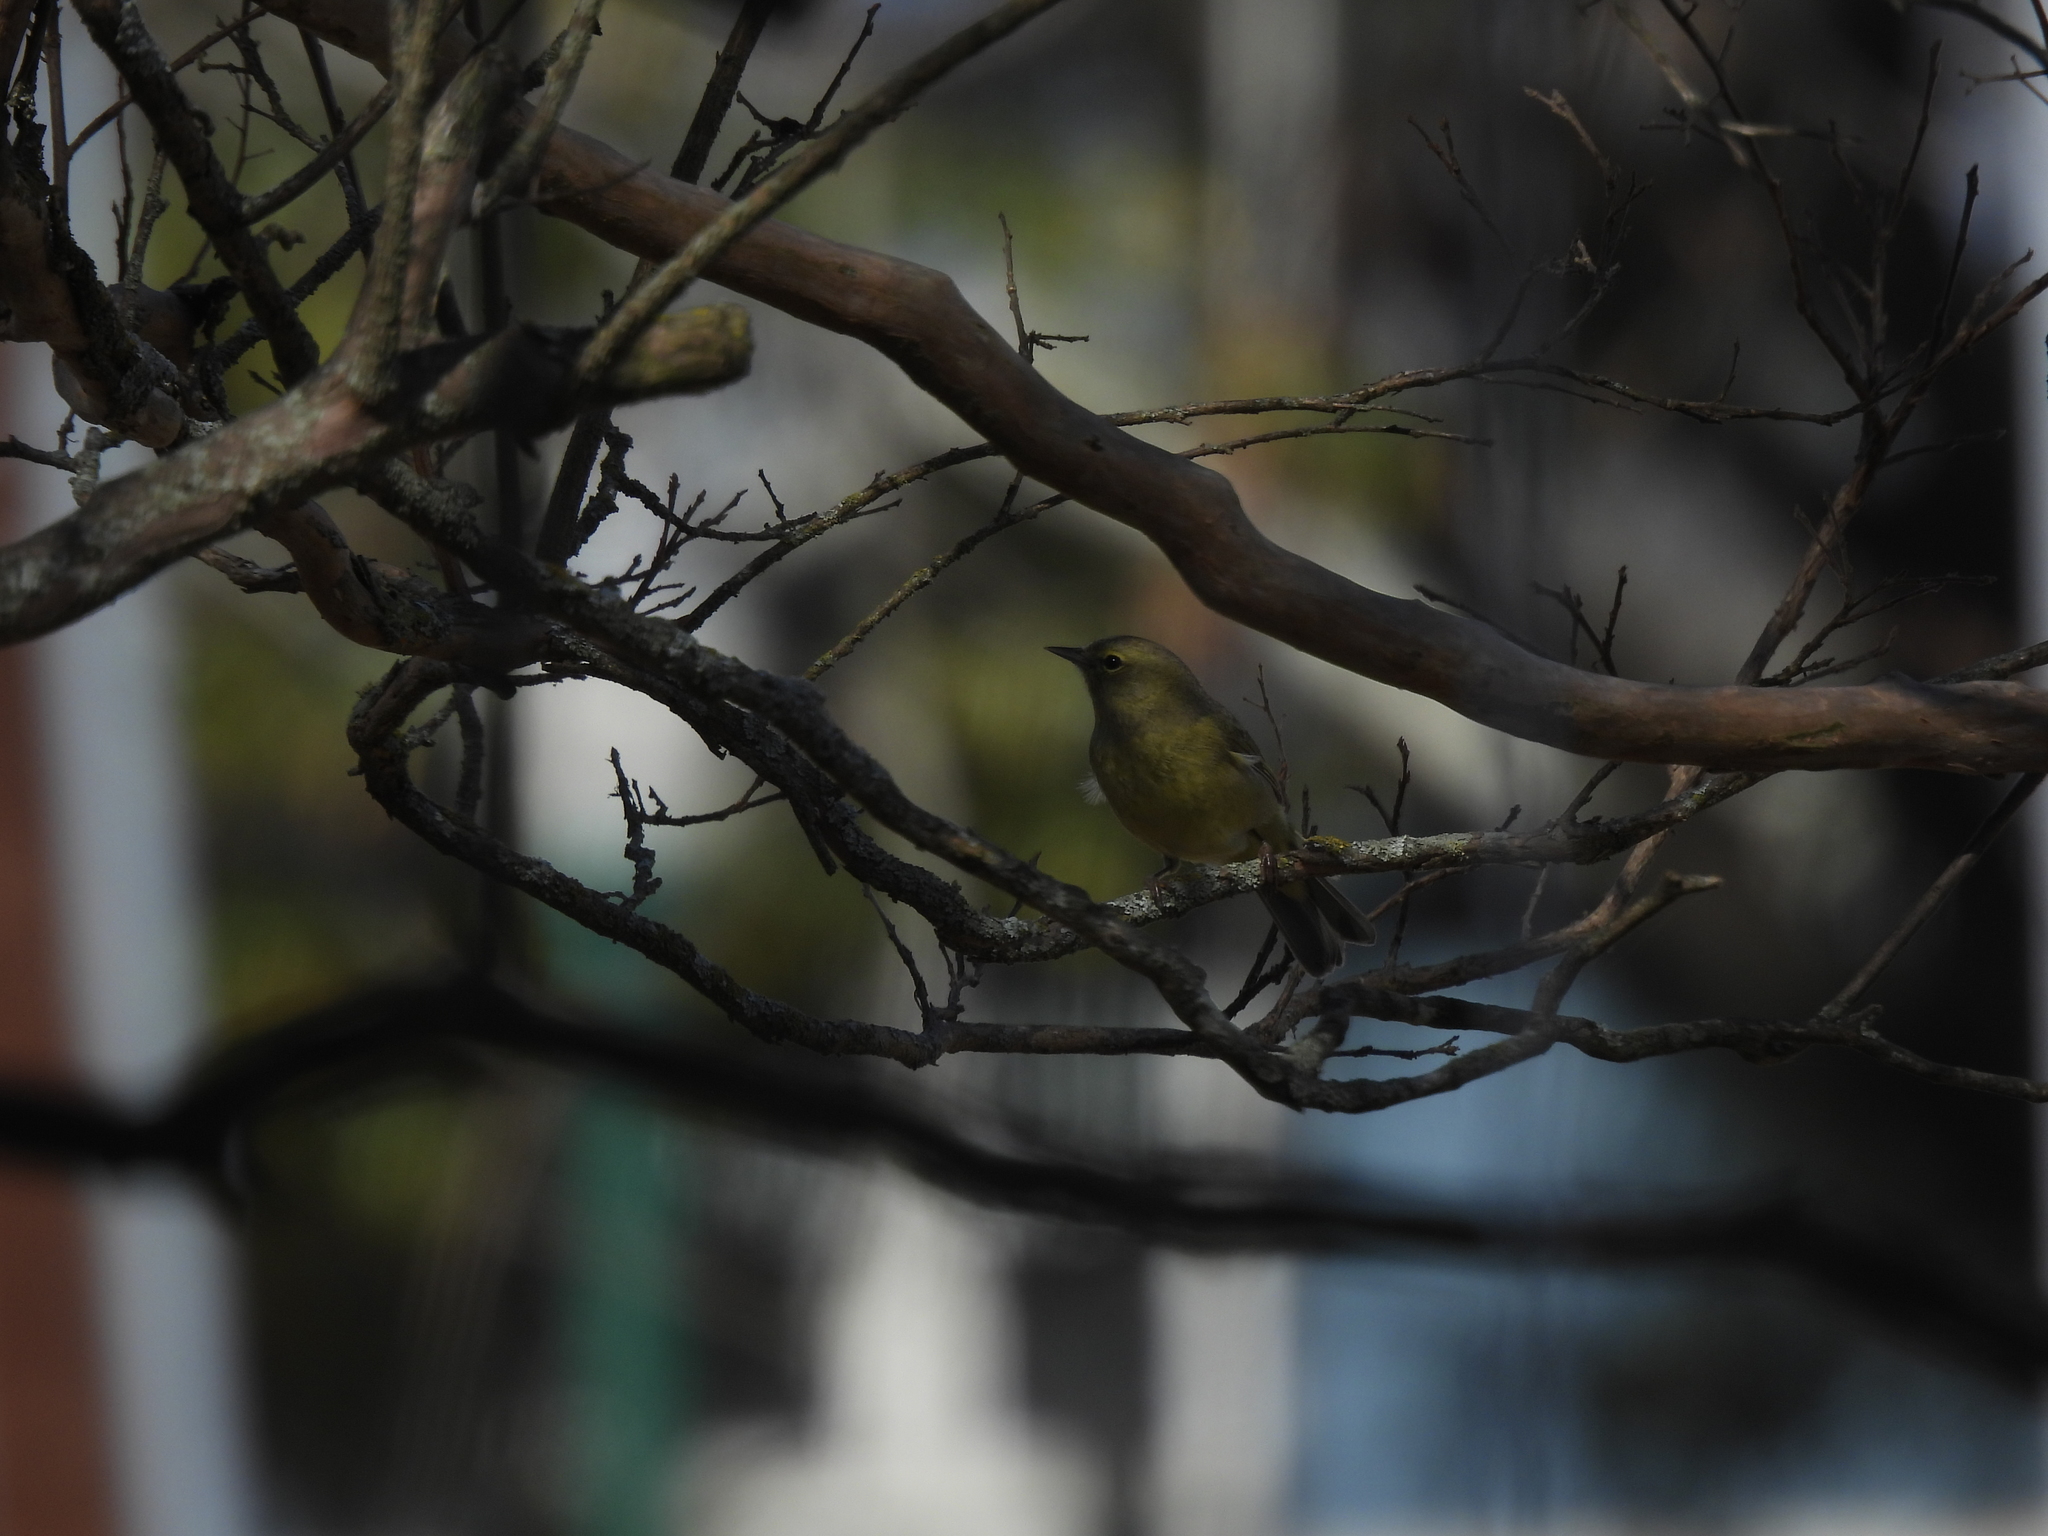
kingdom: Animalia
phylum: Chordata
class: Aves
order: Passeriformes
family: Parulidae
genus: Leiothlypis
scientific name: Leiothlypis celata
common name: Orange-crowned warbler
